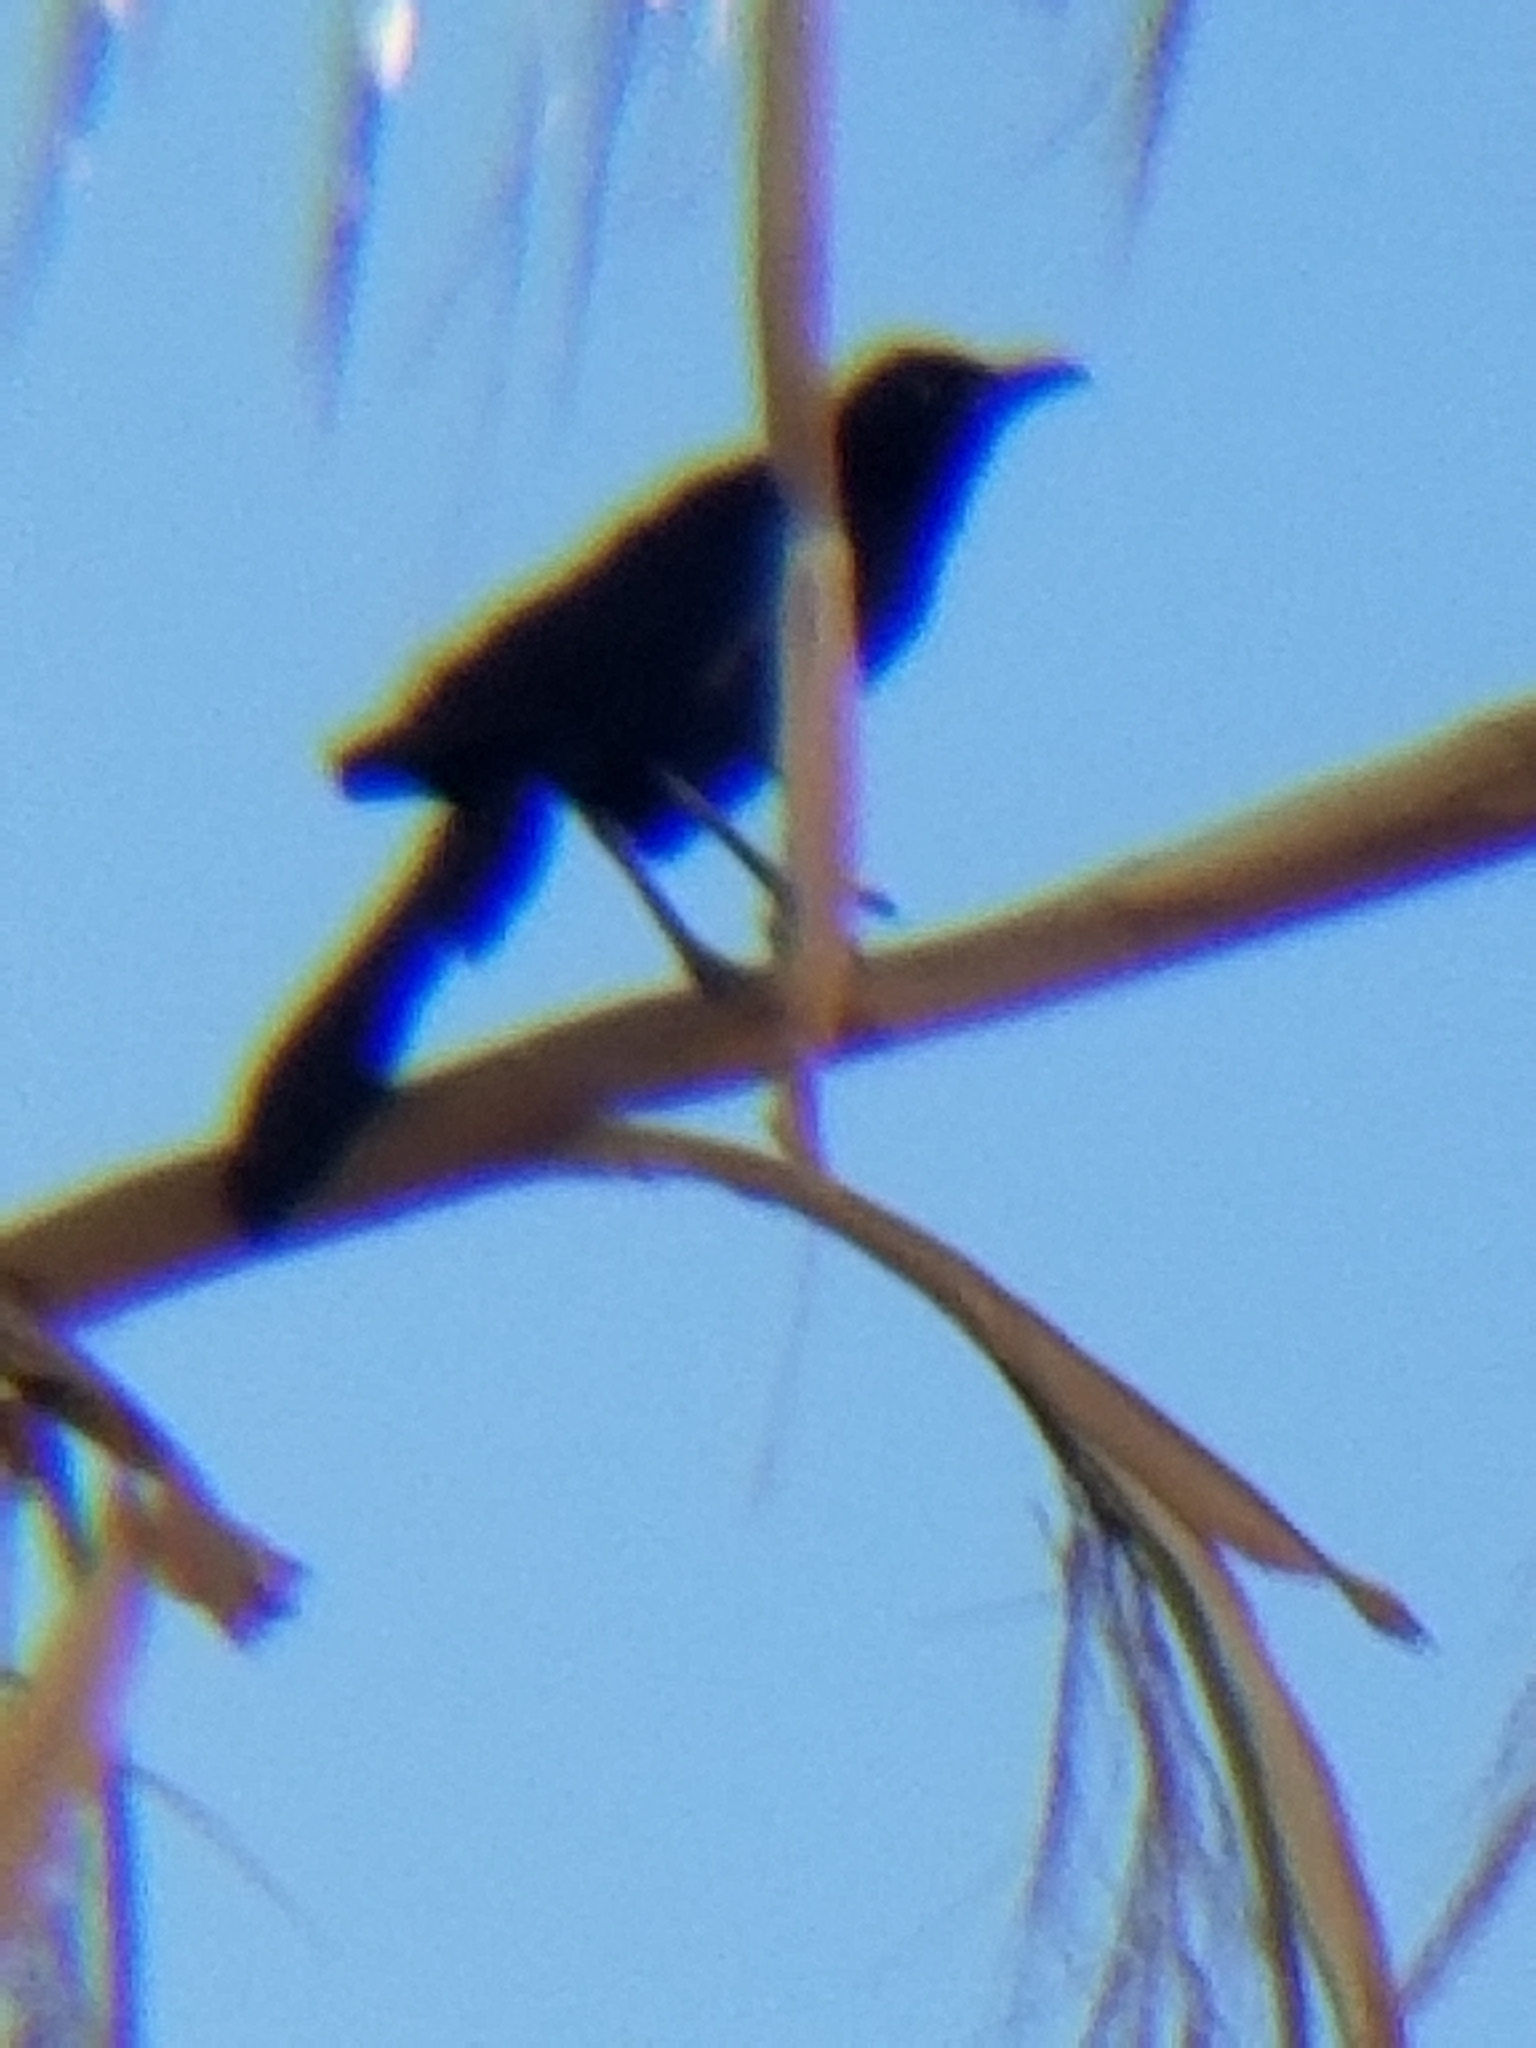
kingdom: Animalia
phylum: Chordata
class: Aves
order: Passeriformes
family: Icteridae
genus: Quiscalus
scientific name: Quiscalus mexicanus
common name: Great-tailed grackle
